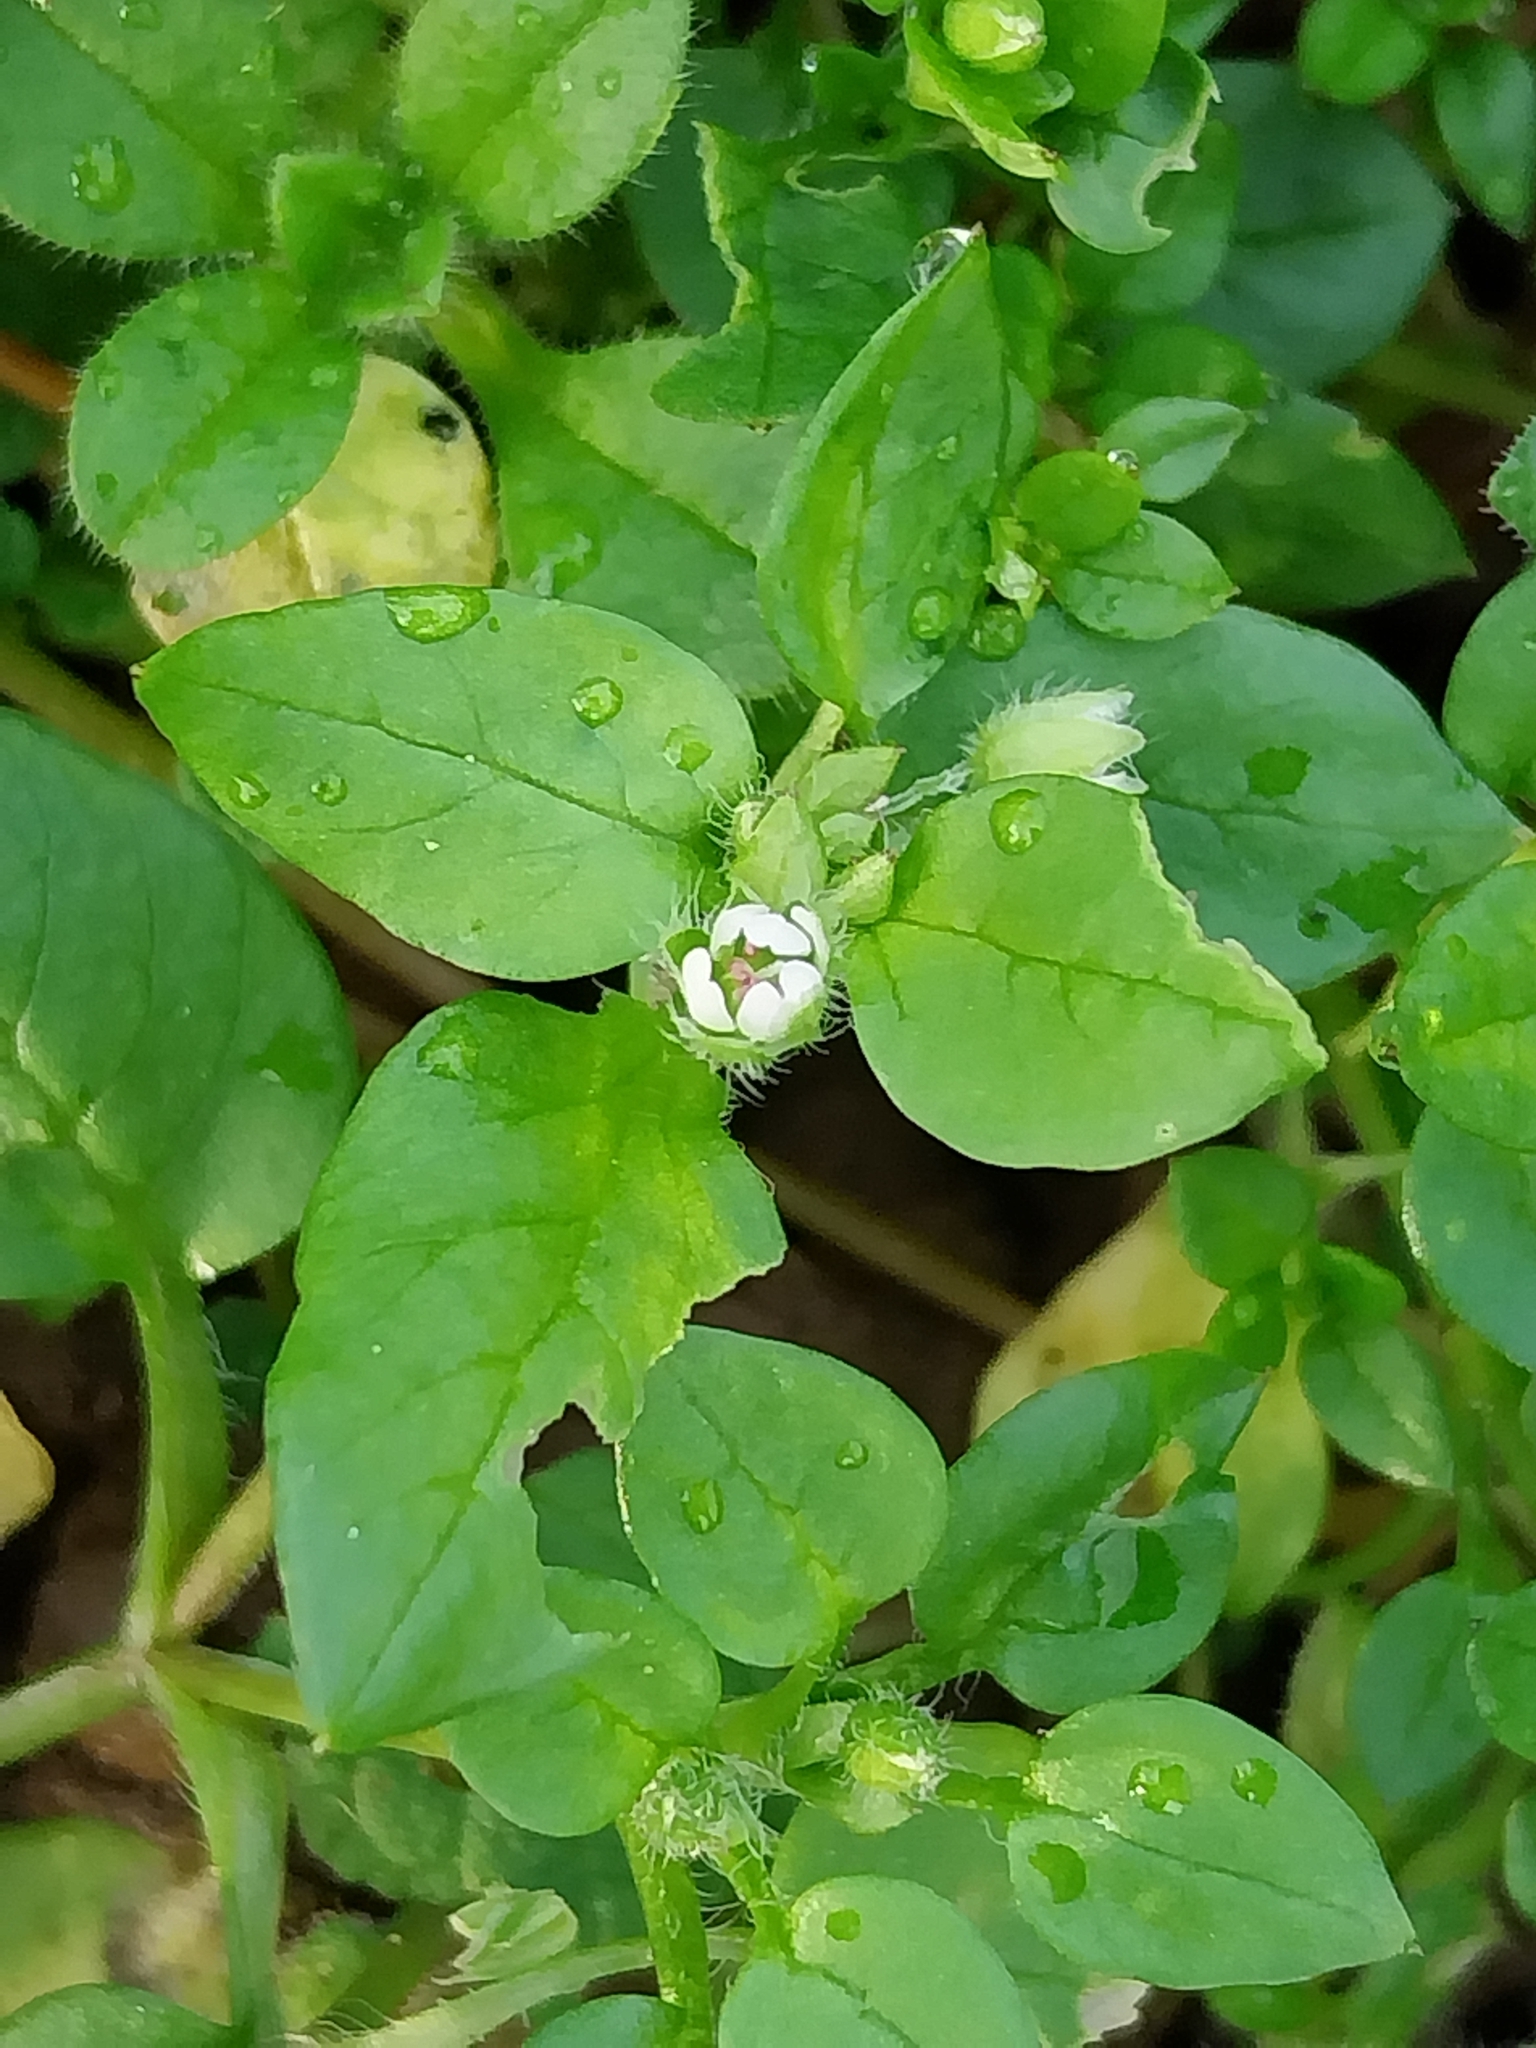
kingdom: Plantae
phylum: Tracheophyta
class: Magnoliopsida
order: Caryophyllales
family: Caryophyllaceae
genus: Stellaria
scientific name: Stellaria media
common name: Common chickweed
